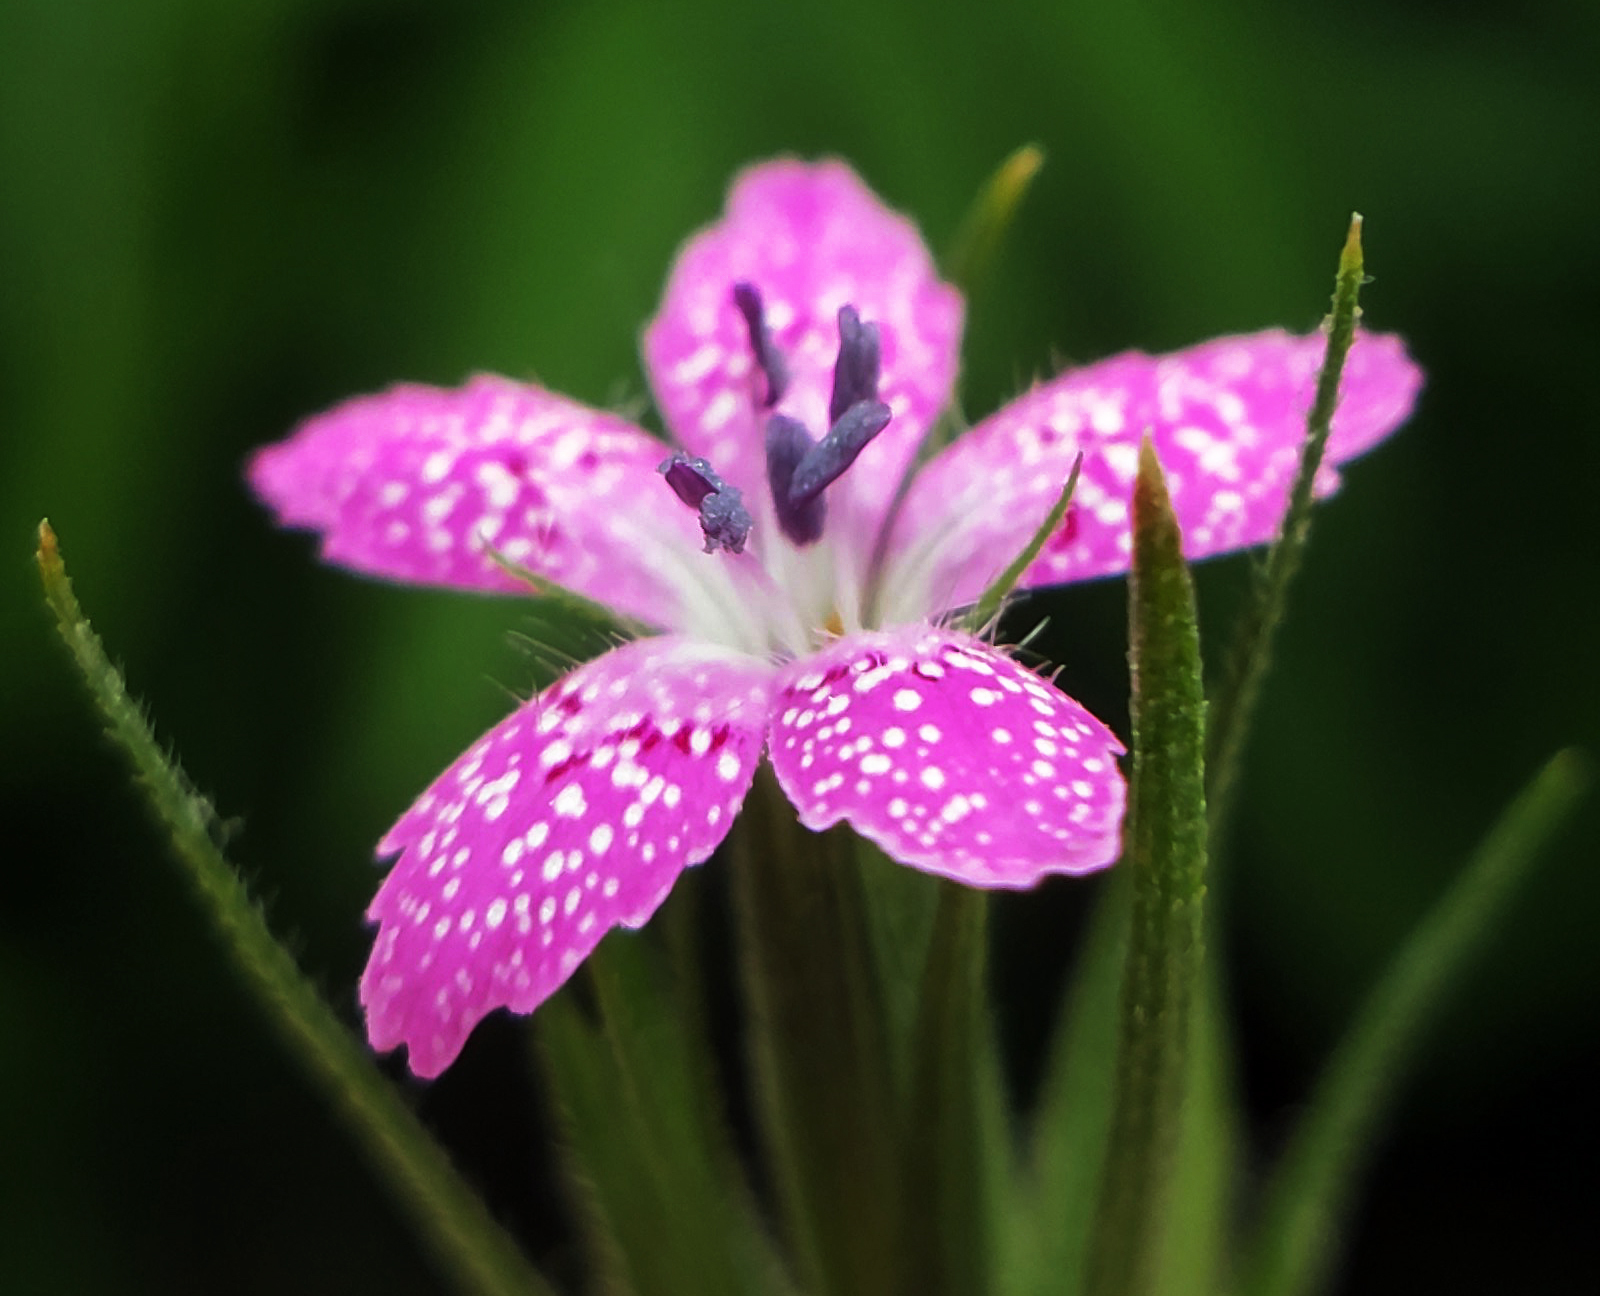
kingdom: Plantae
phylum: Tracheophyta
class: Magnoliopsida
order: Caryophyllales
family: Caryophyllaceae
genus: Dianthus
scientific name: Dianthus armeria
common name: Deptford pink
